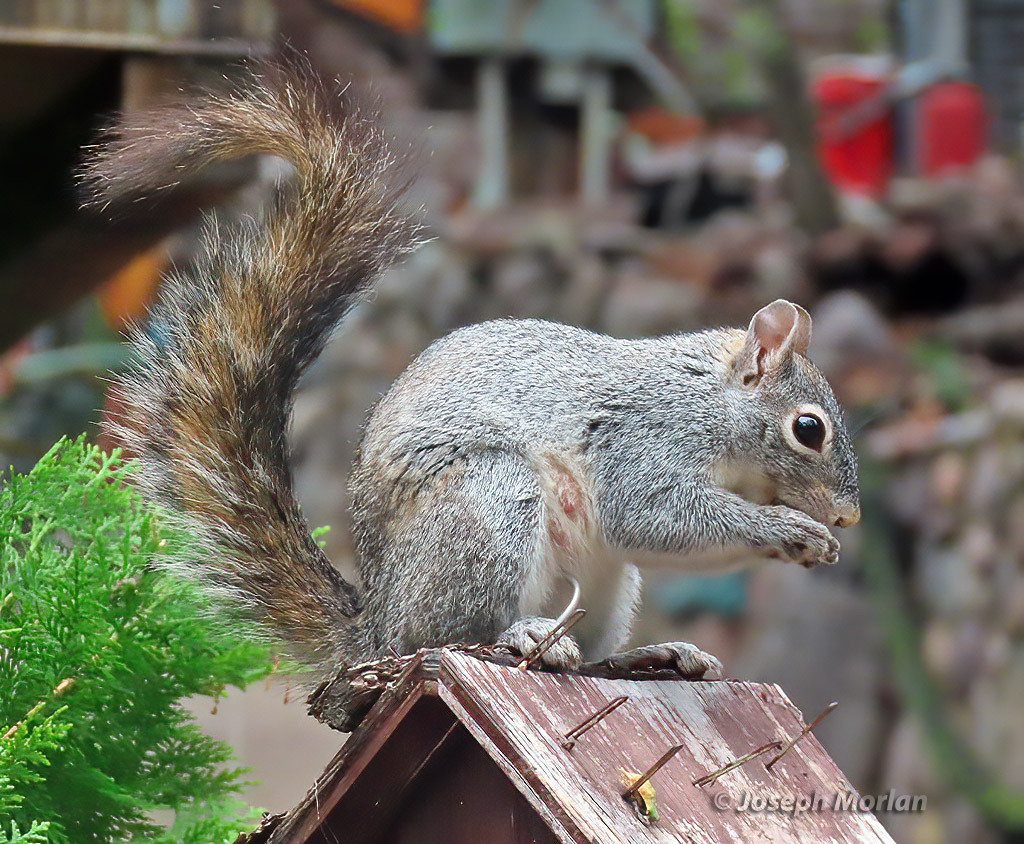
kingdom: Animalia
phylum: Chordata
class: Mammalia
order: Rodentia
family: Sciuridae
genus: Sciurus
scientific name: Sciurus arizonensis
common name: Arizona gray squirrel
